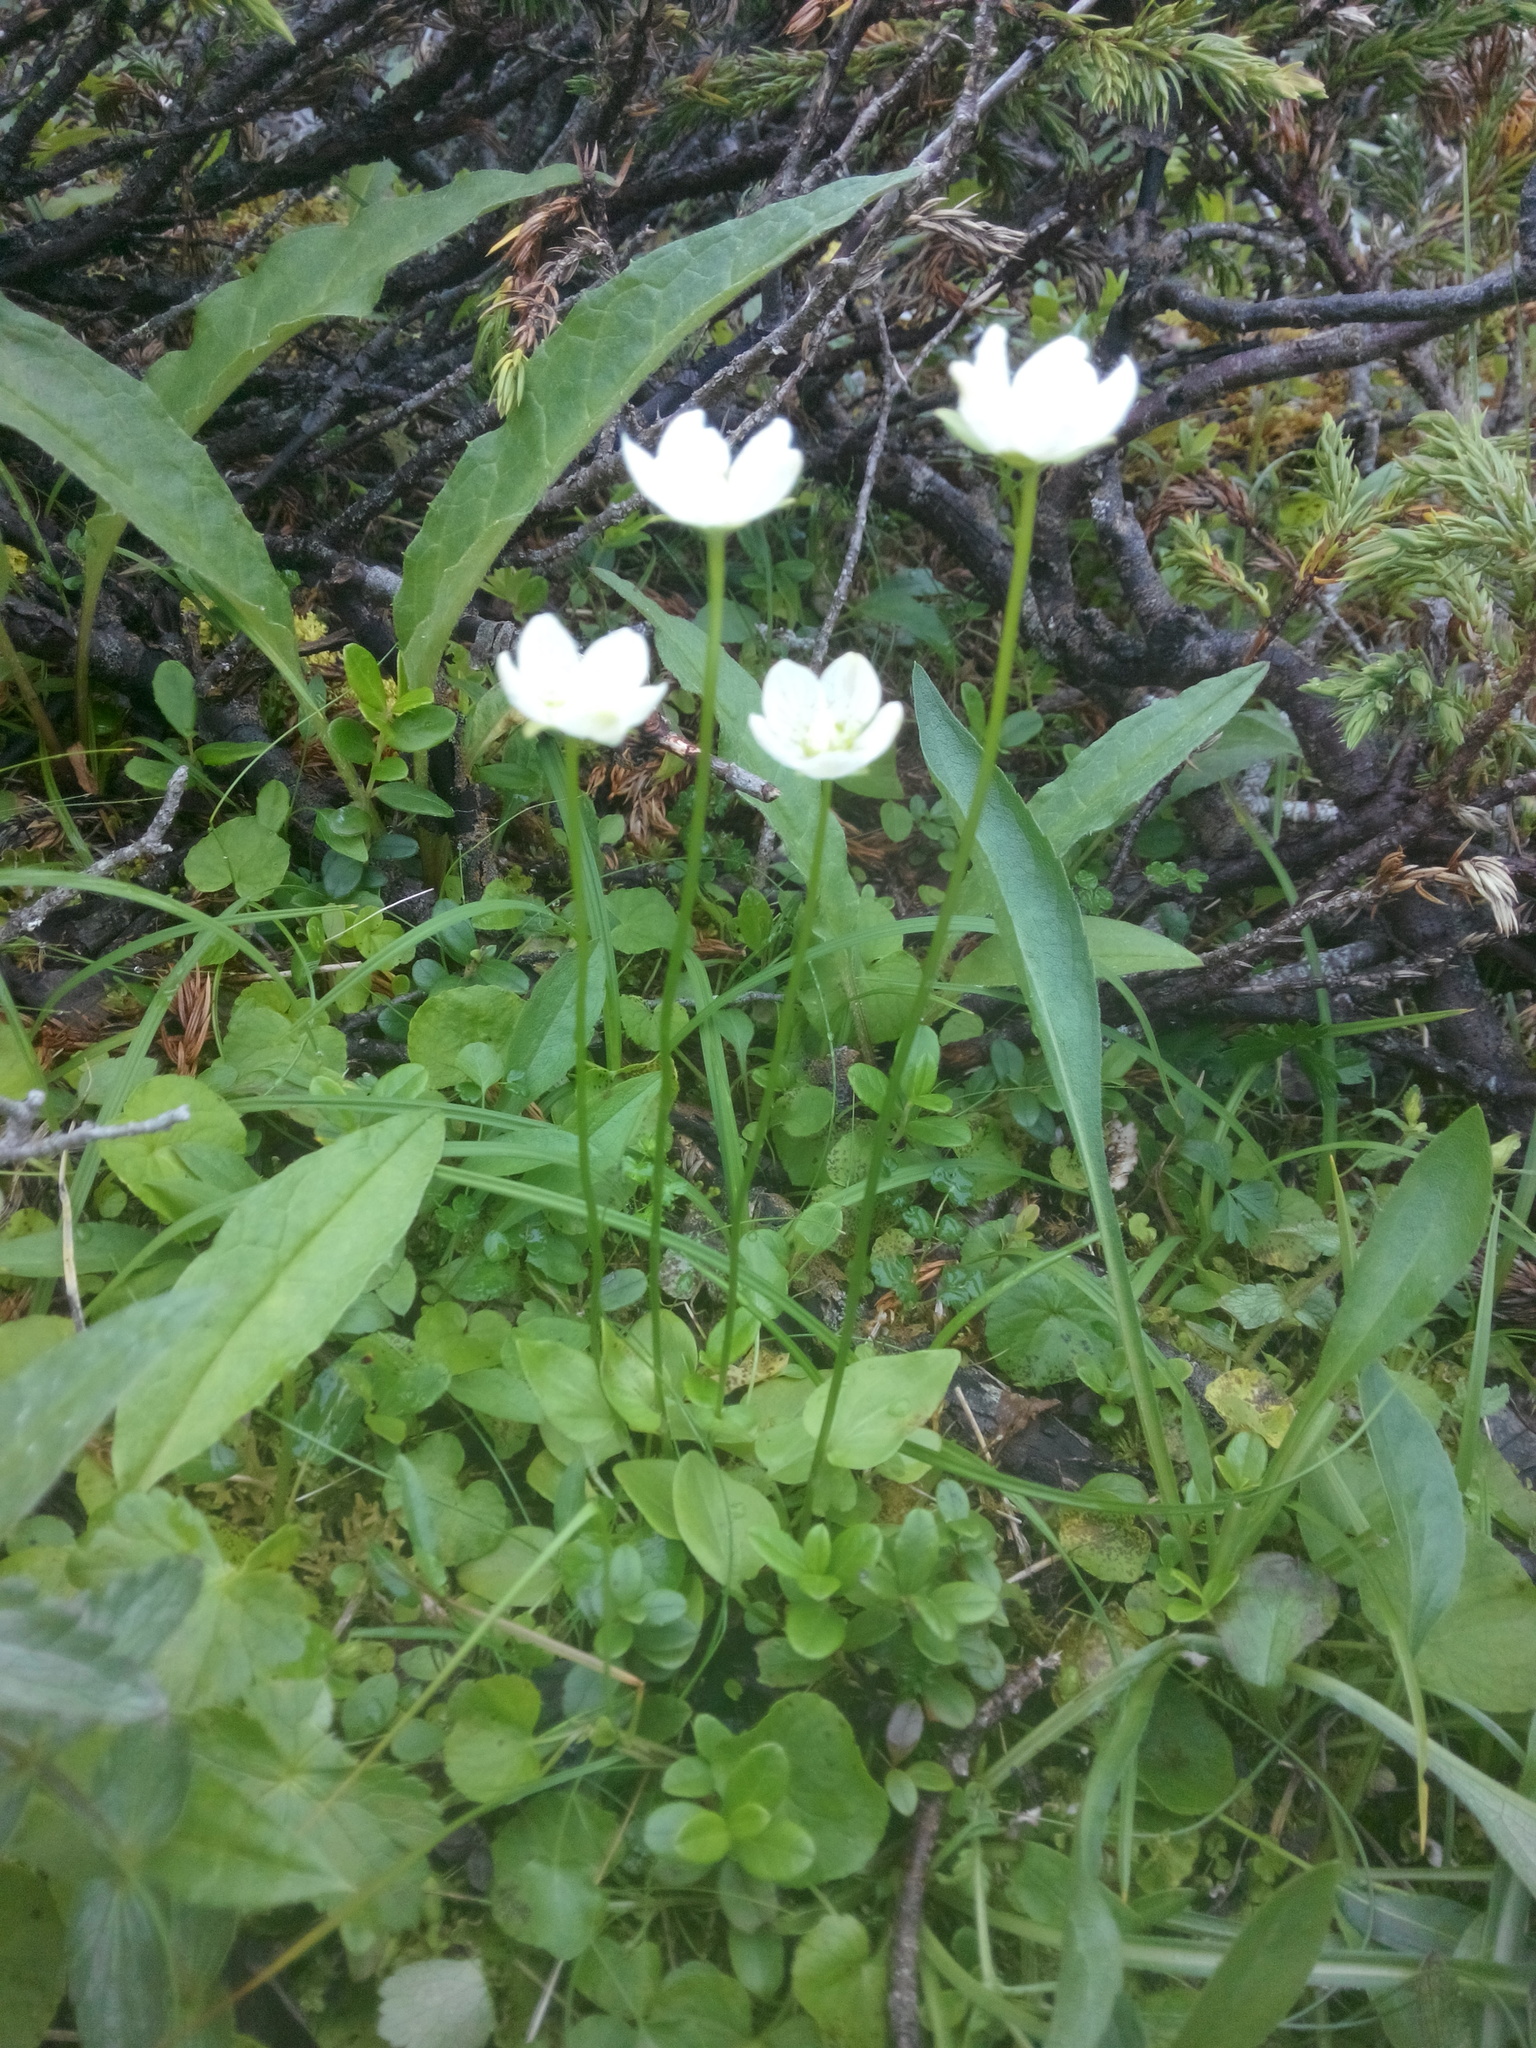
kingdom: Plantae
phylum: Tracheophyta
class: Magnoliopsida
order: Celastrales
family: Parnassiaceae
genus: Parnassia
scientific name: Parnassia palustris
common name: Grass-of-parnassus
